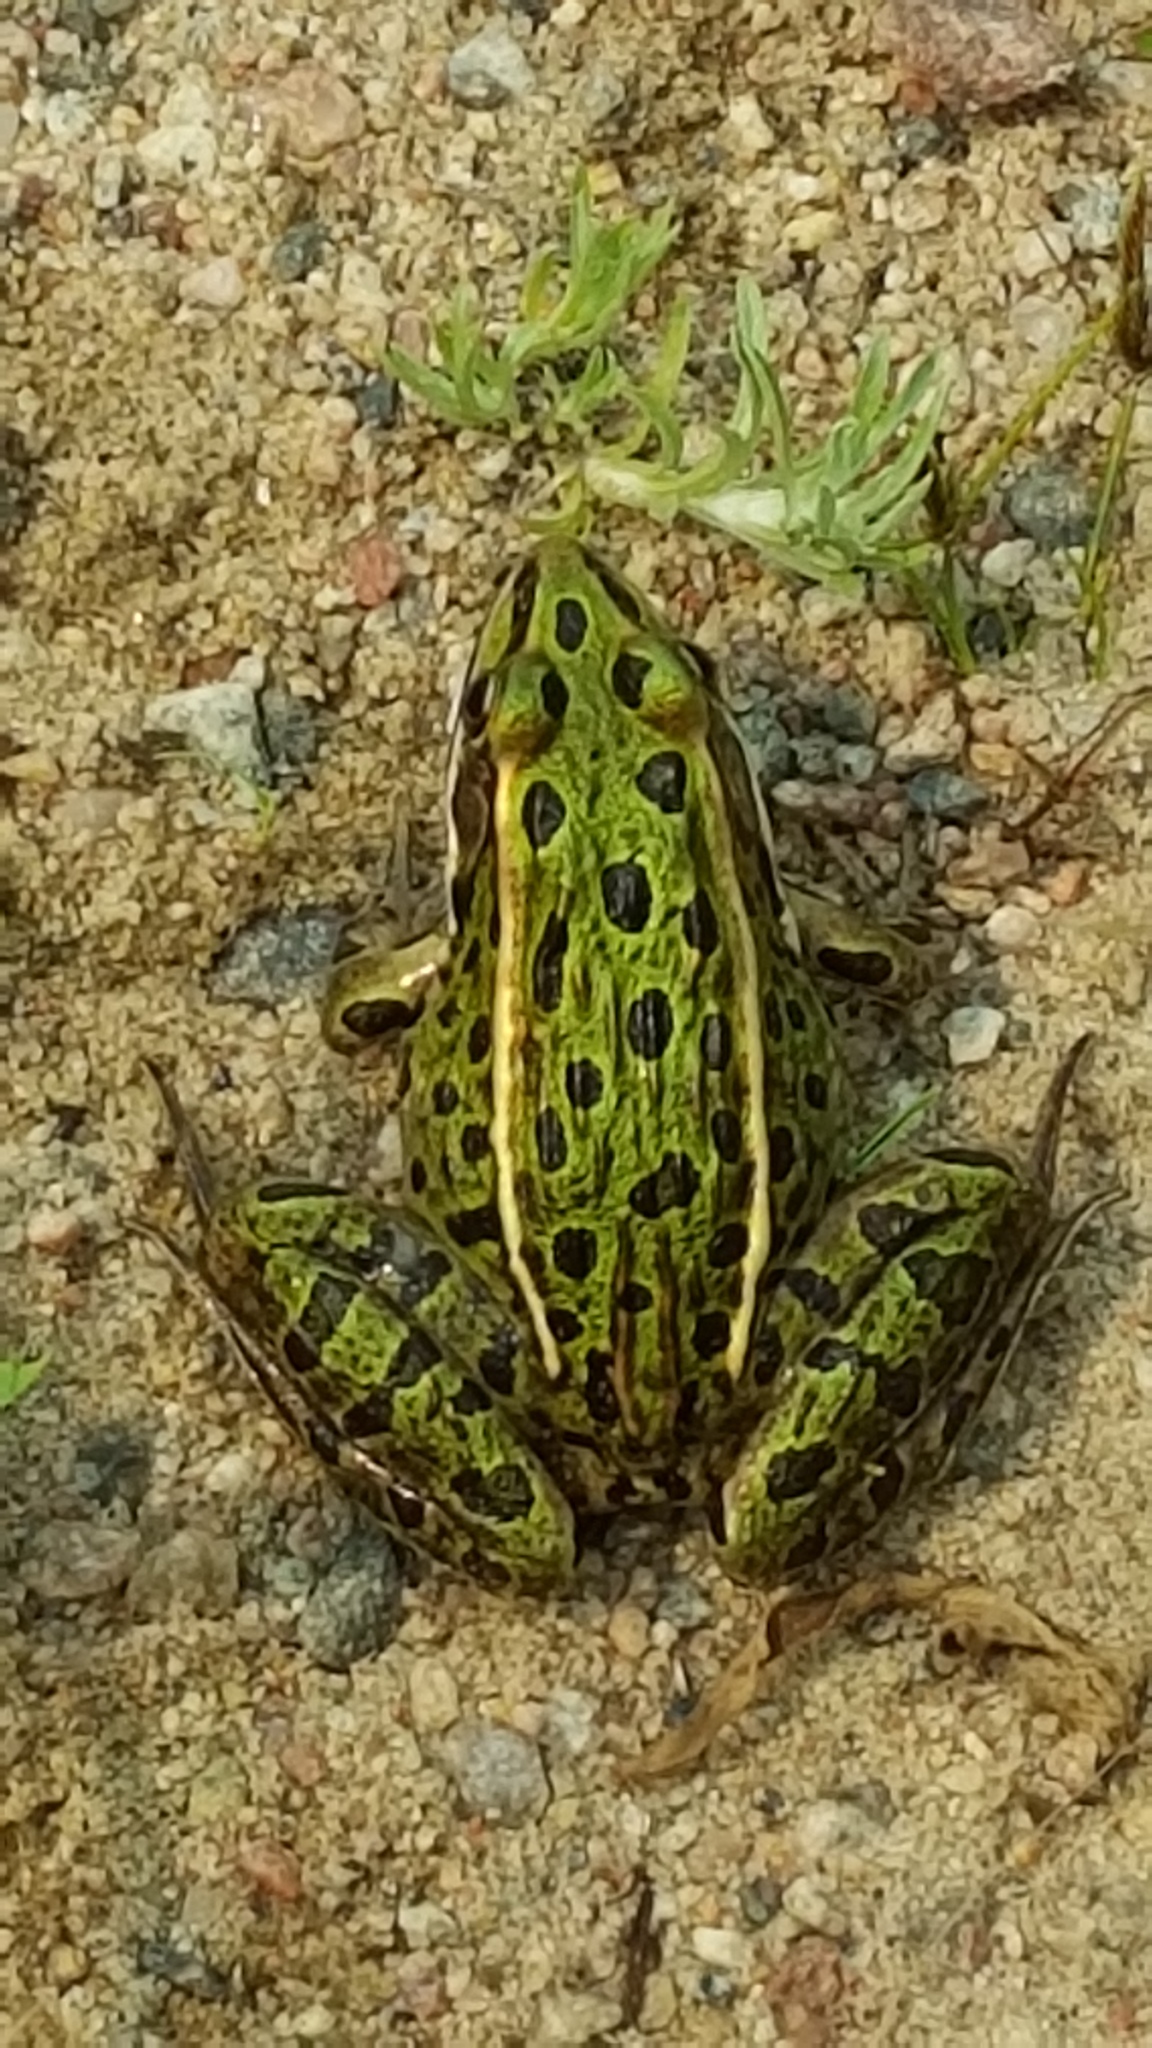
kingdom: Animalia
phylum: Chordata
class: Amphibia
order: Anura
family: Ranidae
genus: Lithobates
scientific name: Lithobates pipiens
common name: Northern leopard frog
